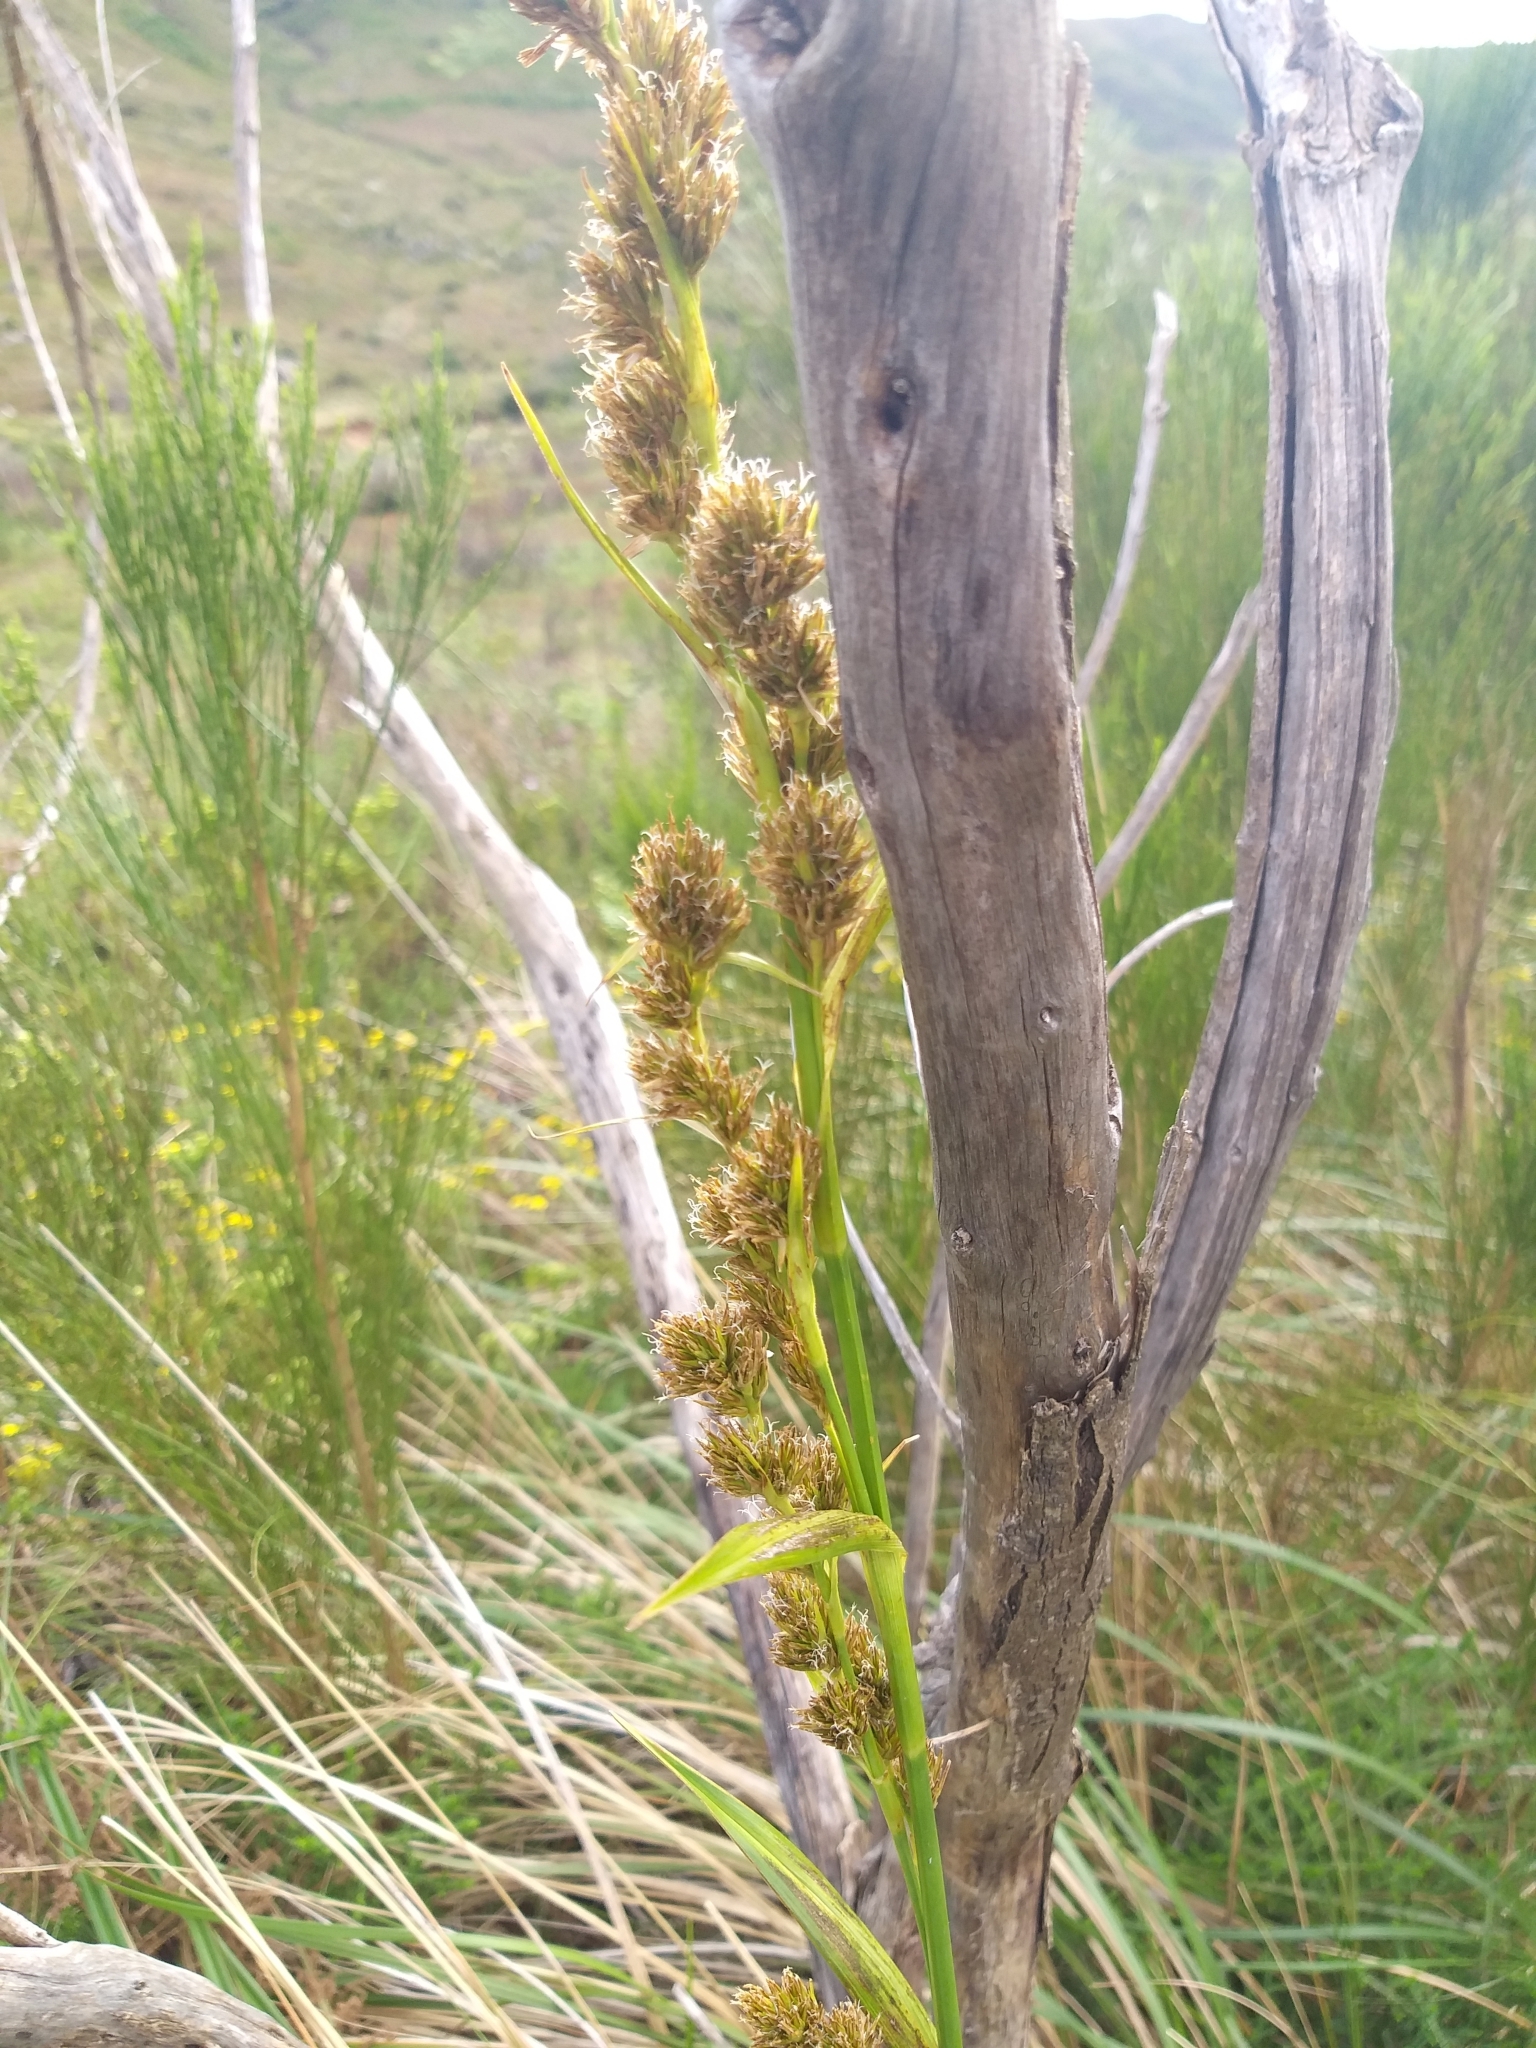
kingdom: Plantae
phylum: Tracheophyta
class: Liliopsida
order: Poales
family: Cyperaceae
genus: Carpha
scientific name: Carpha glomerata
